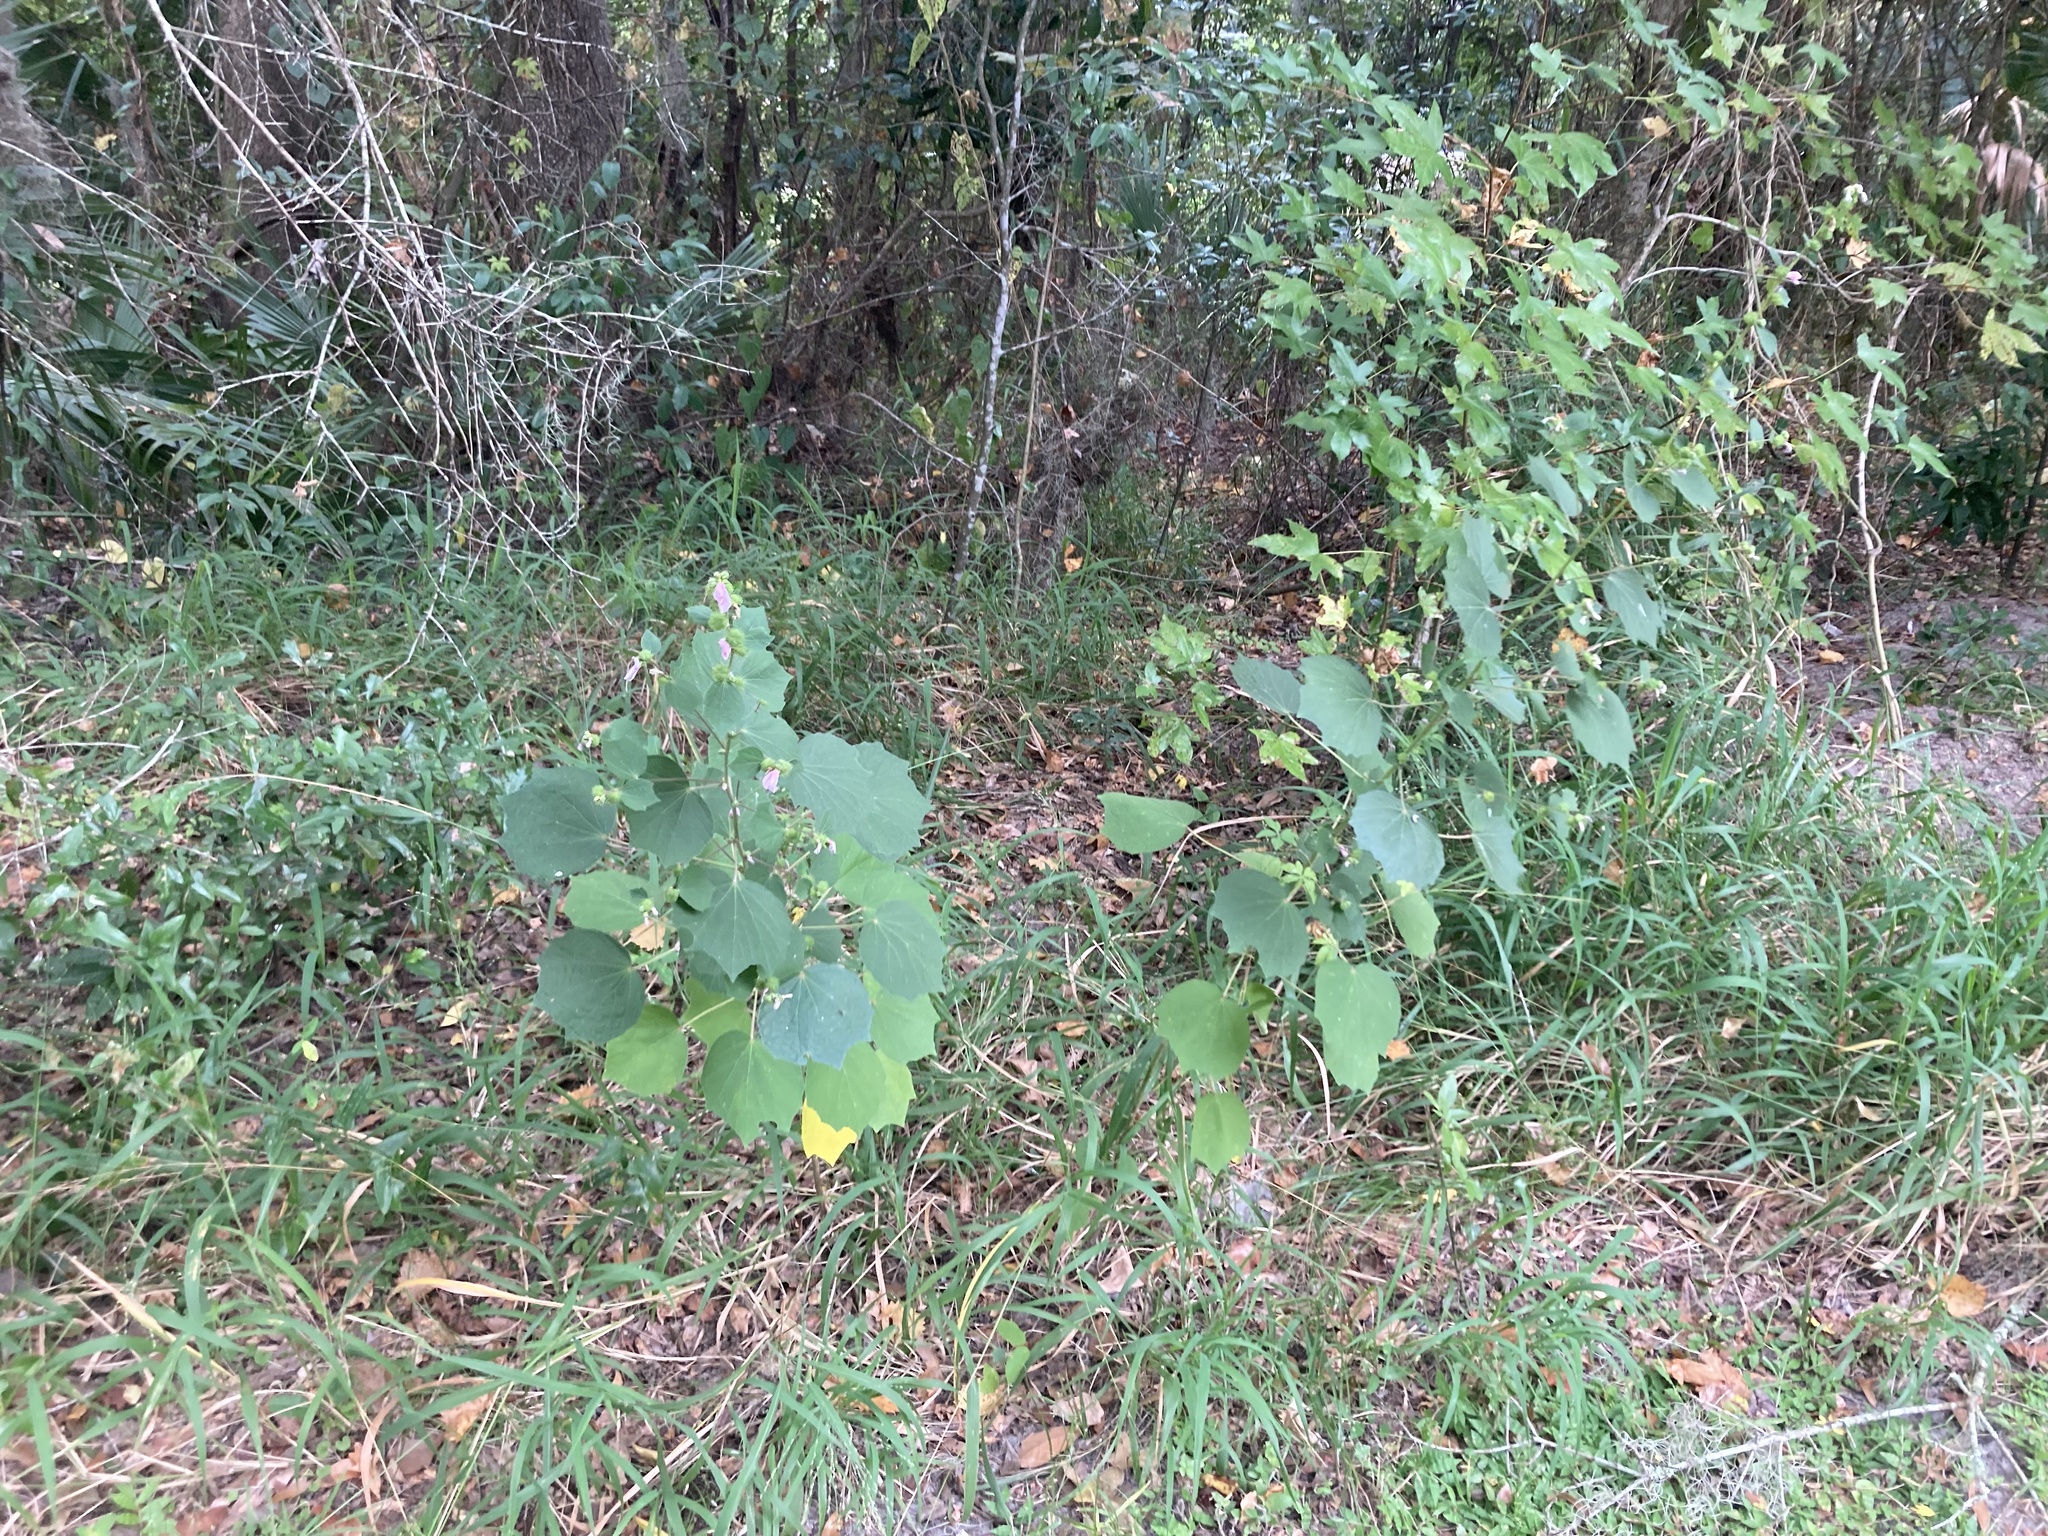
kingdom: Plantae
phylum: Tracheophyta
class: Magnoliopsida
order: Malvales
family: Malvaceae
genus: Urena
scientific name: Urena lobata
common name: Caesarweed
